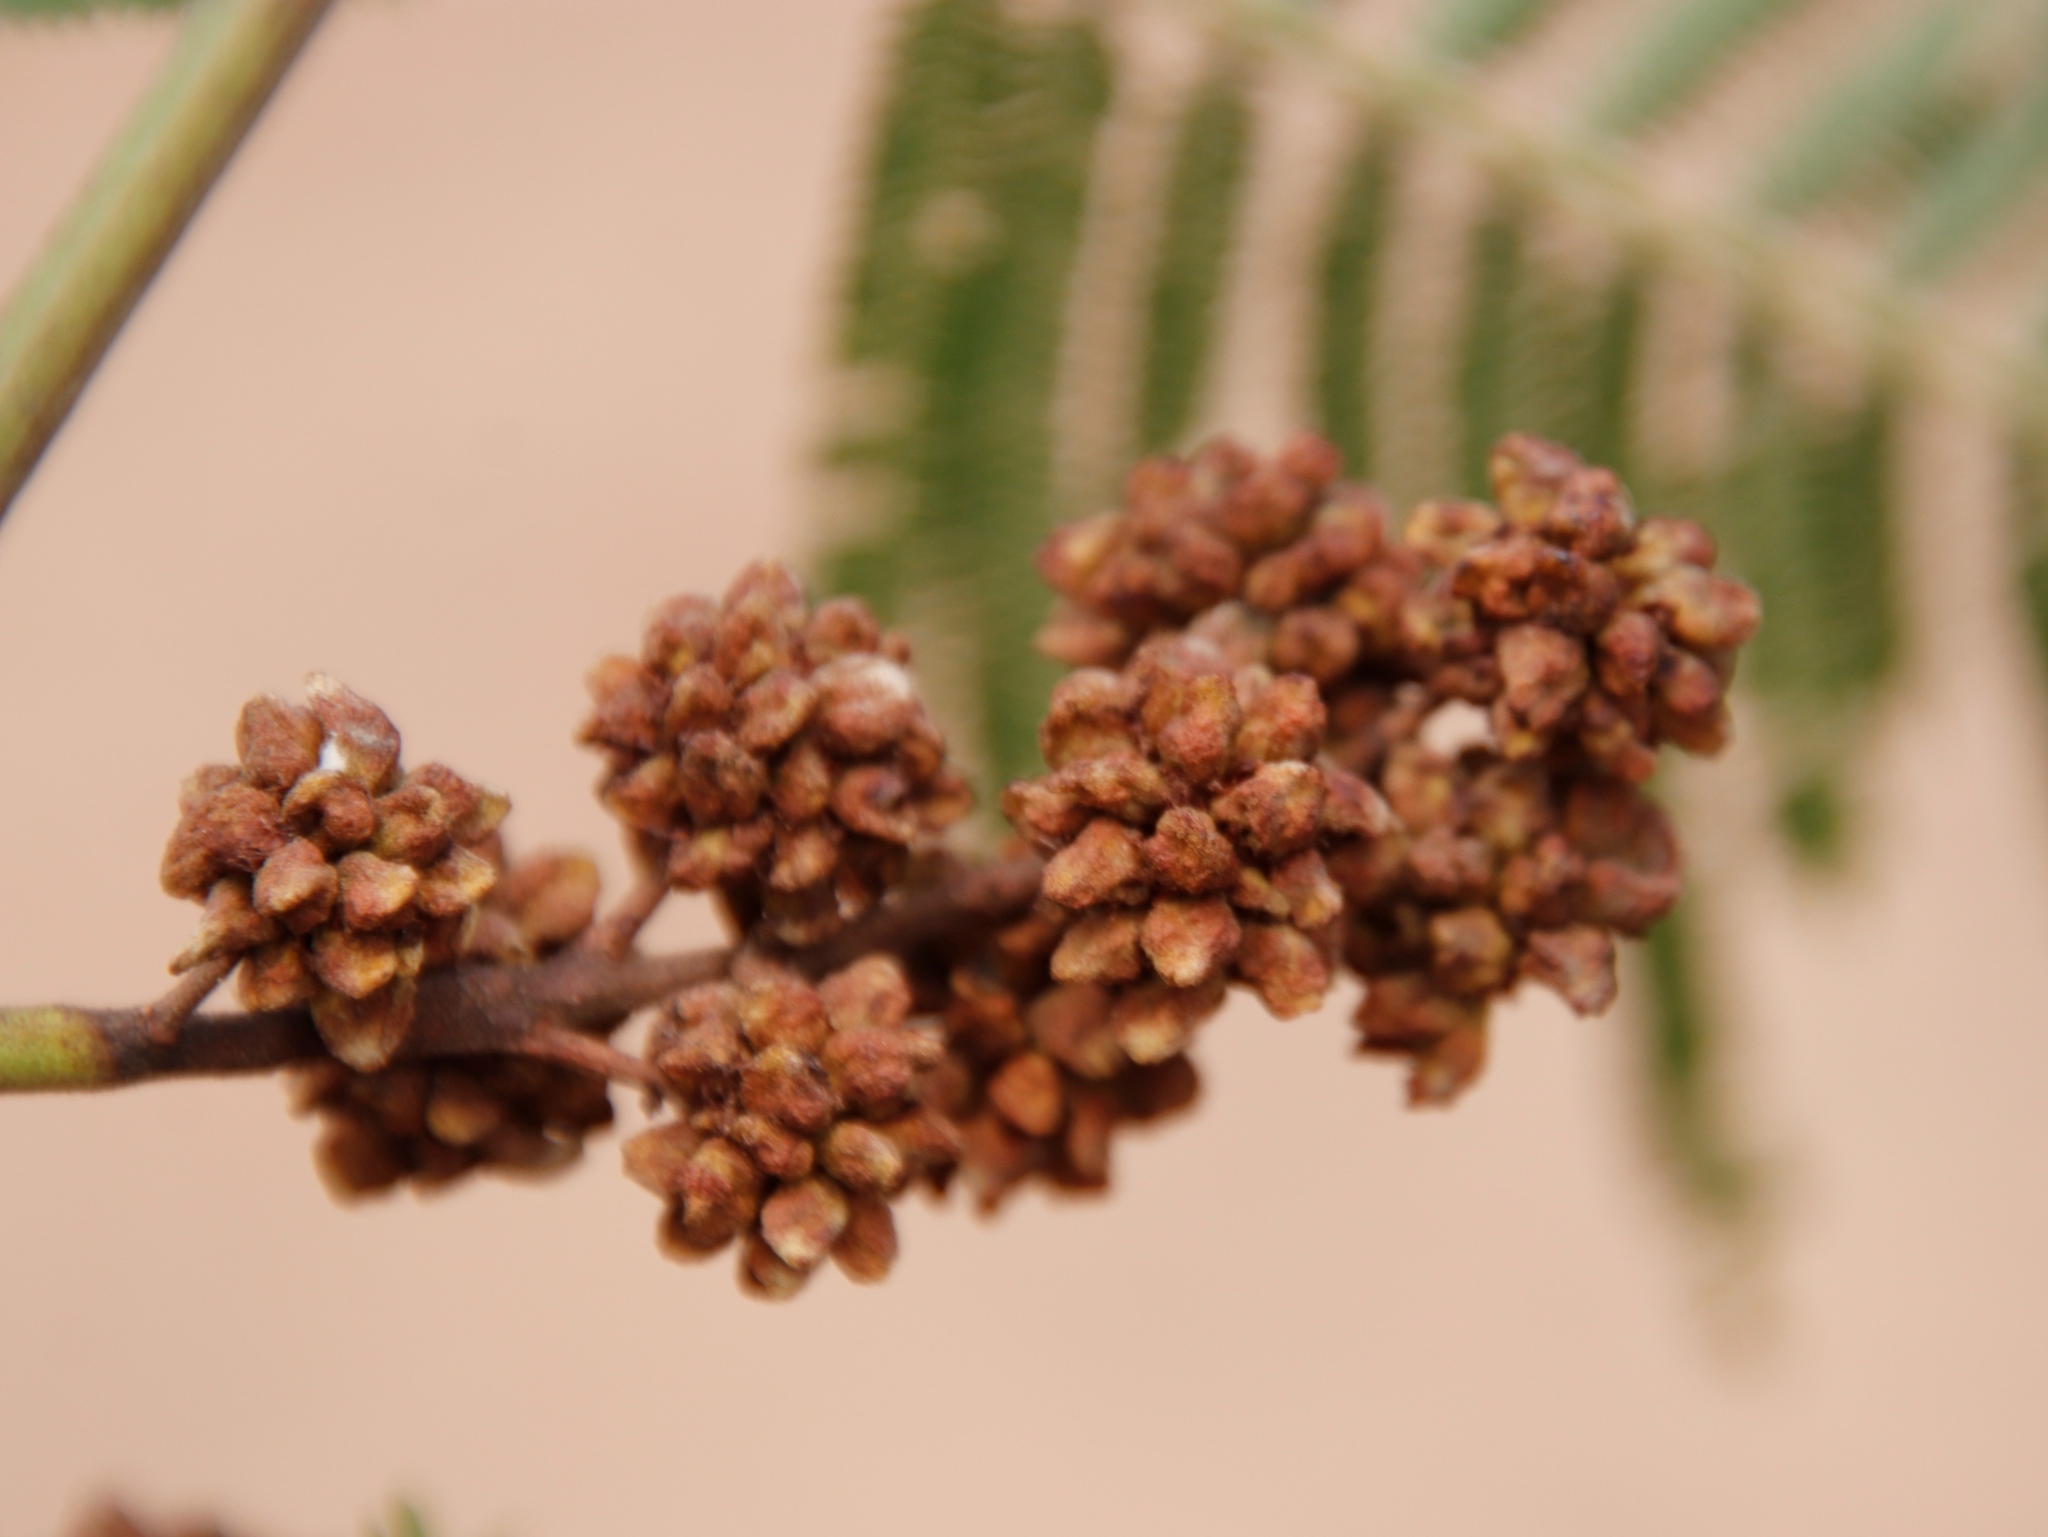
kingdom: Animalia
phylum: Arthropoda
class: Insecta
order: Diptera
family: Cecidomyiidae
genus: Dasineura
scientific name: Dasineura rubiformis
